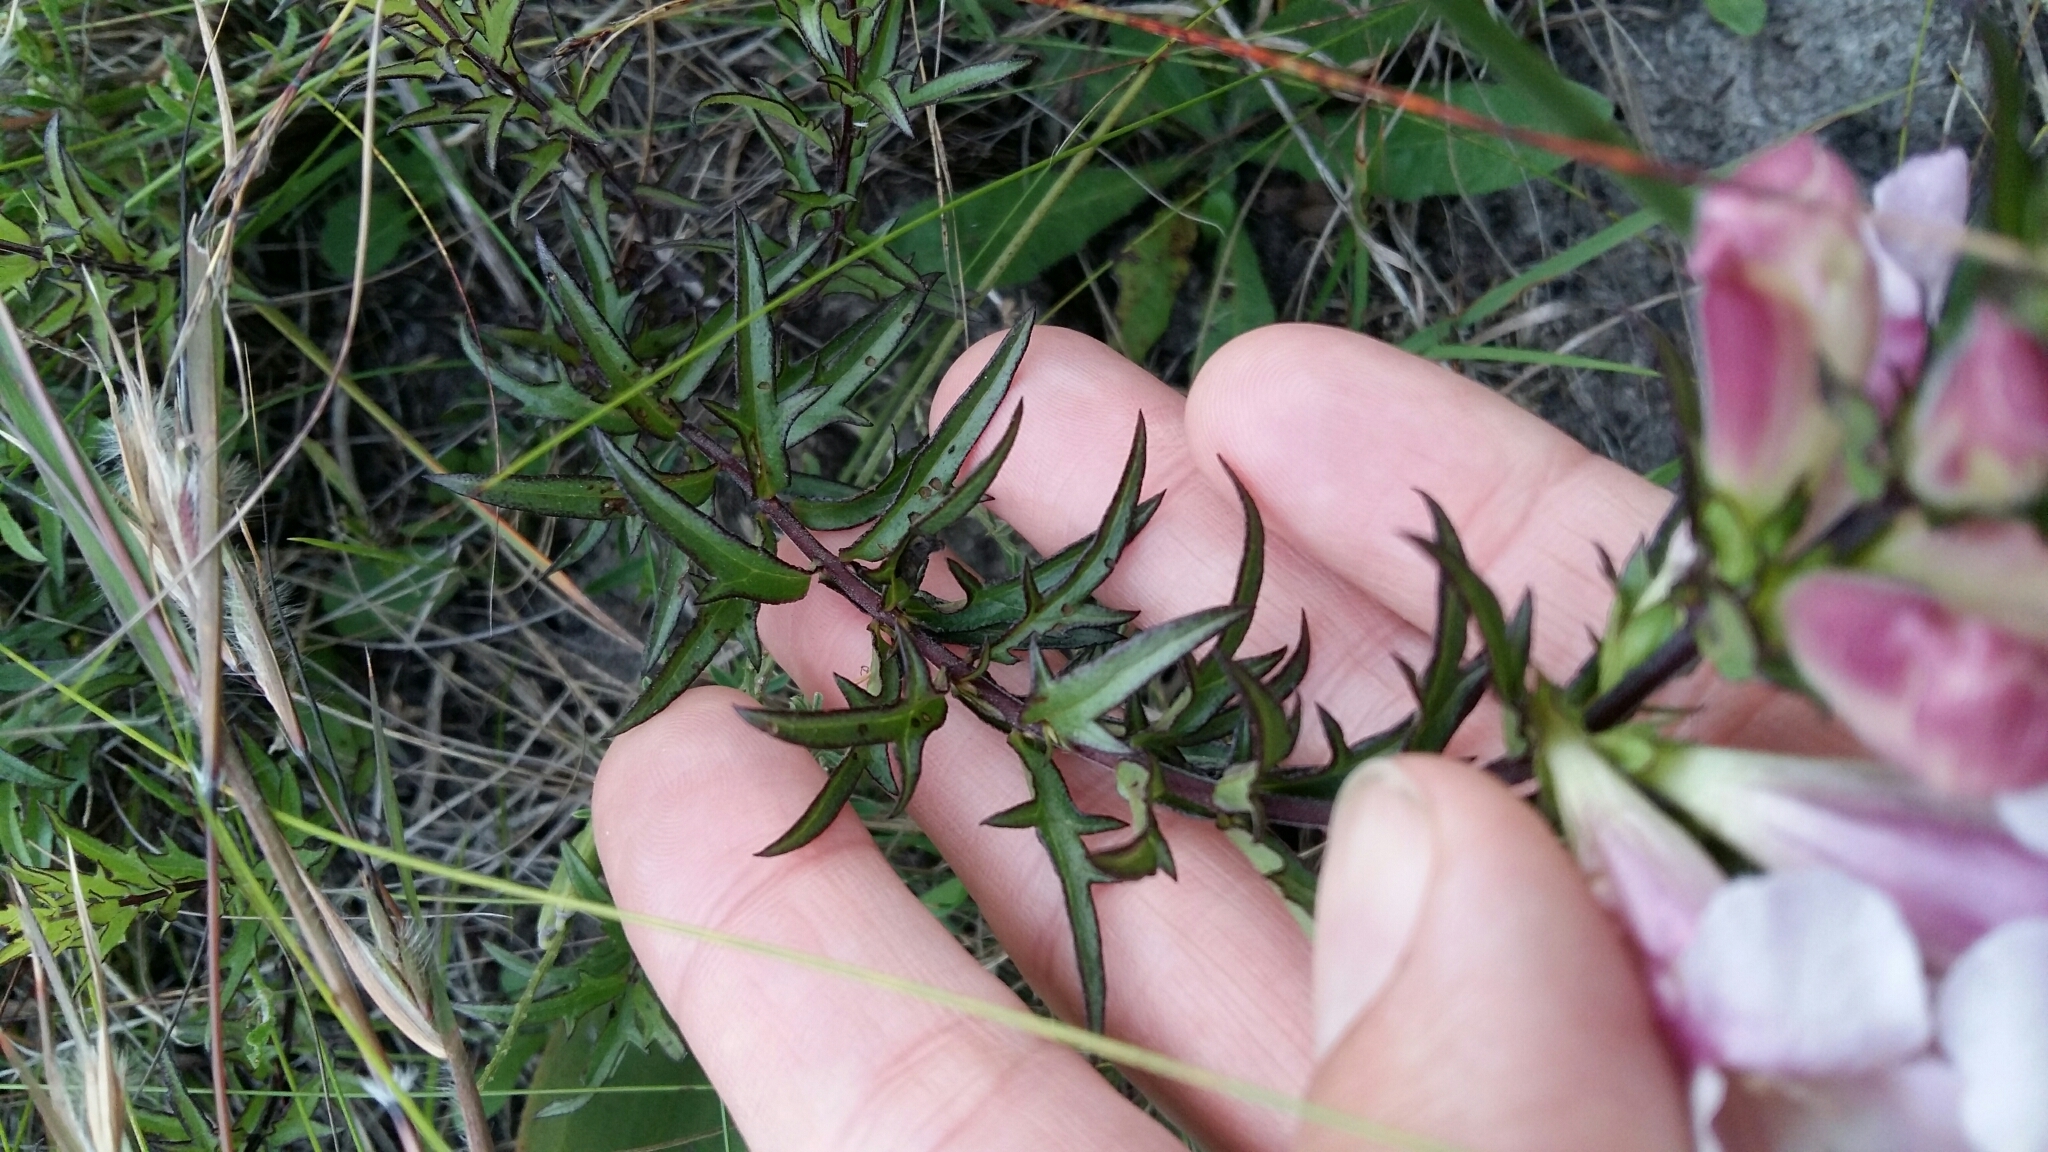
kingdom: Plantae
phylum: Tracheophyta
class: Magnoliopsida
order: Lamiales
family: Orobanchaceae
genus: Graderia
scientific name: Graderia scabra
